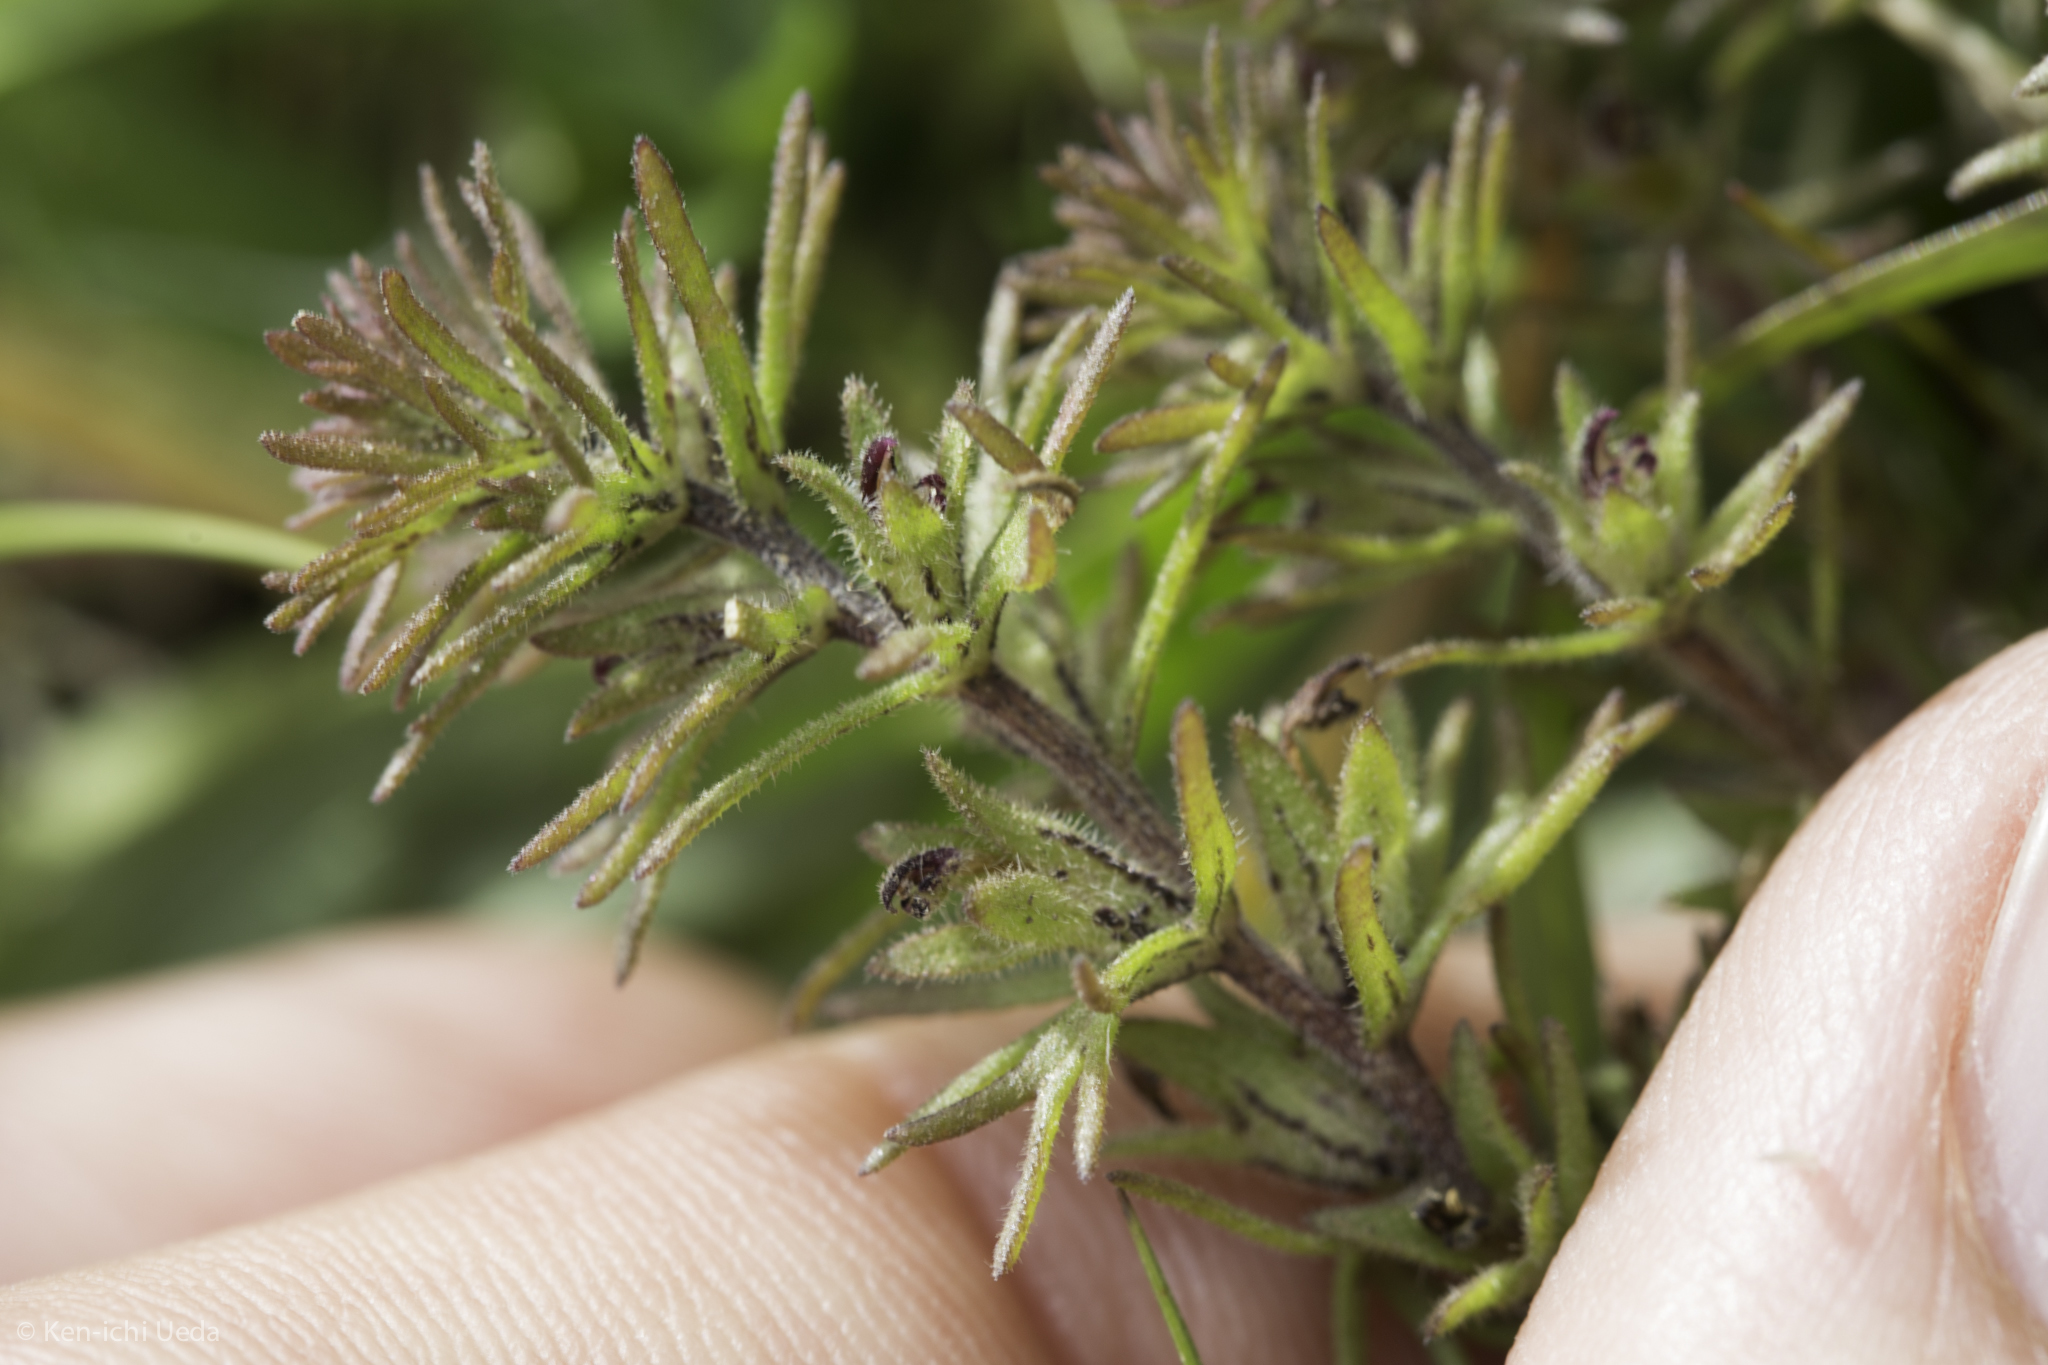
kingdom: Plantae
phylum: Tracheophyta
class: Magnoliopsida
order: Lamiales
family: Orobanchaceae
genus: Triphysaria
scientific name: Triphysaria pusilla
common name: Dwarf false owl-clover
